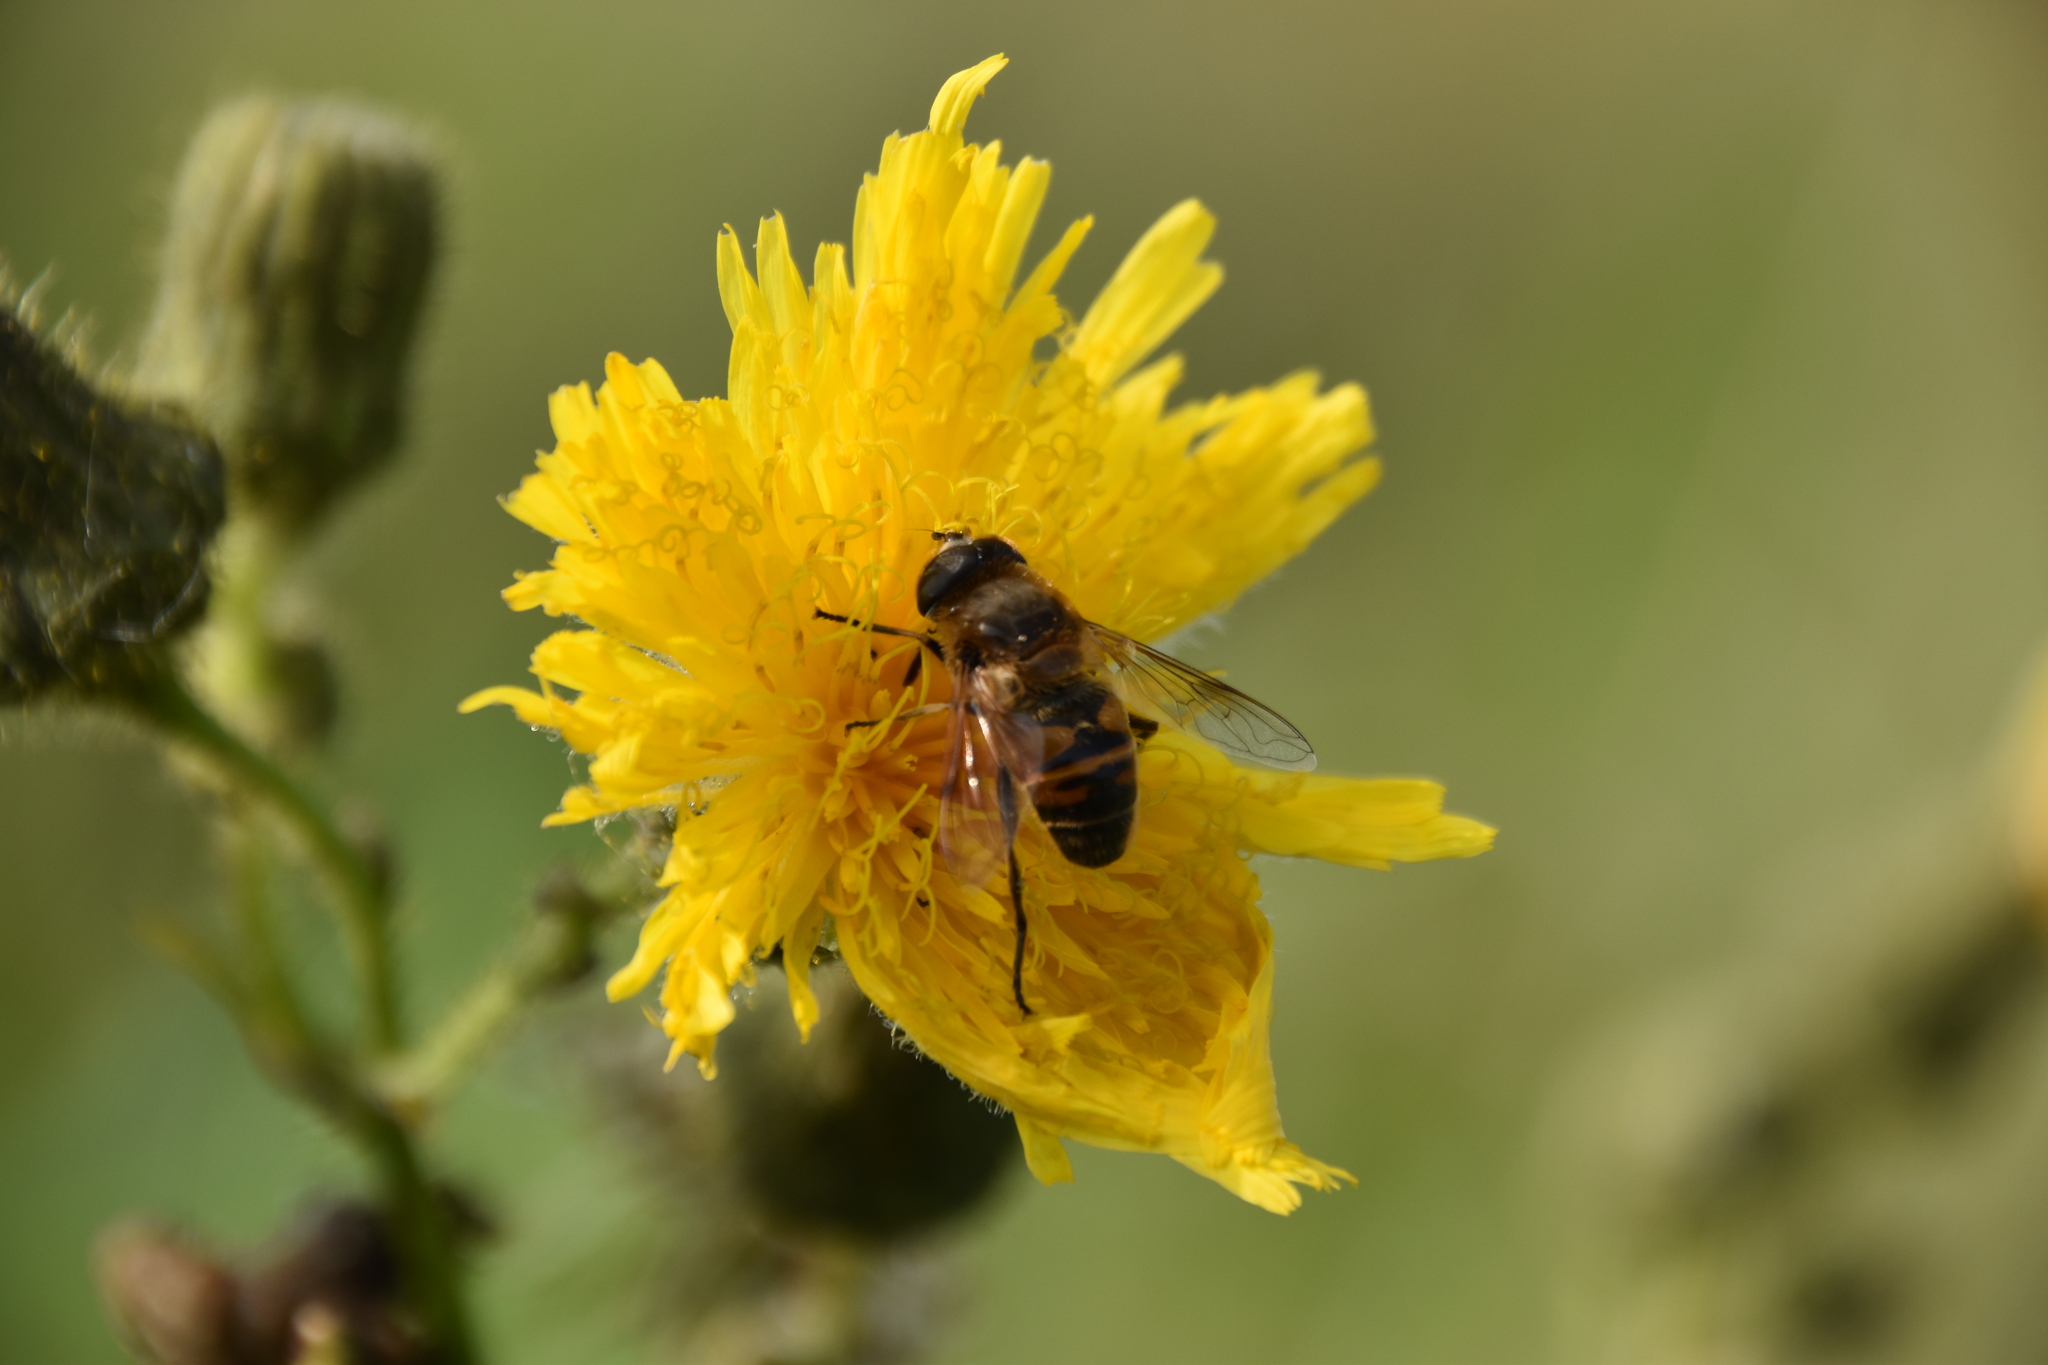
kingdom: Animalia
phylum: Arthropoda
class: Insecta
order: Diptera
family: Syrphidae
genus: Eristalis
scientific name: Eristalis tenax
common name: Drone fly
